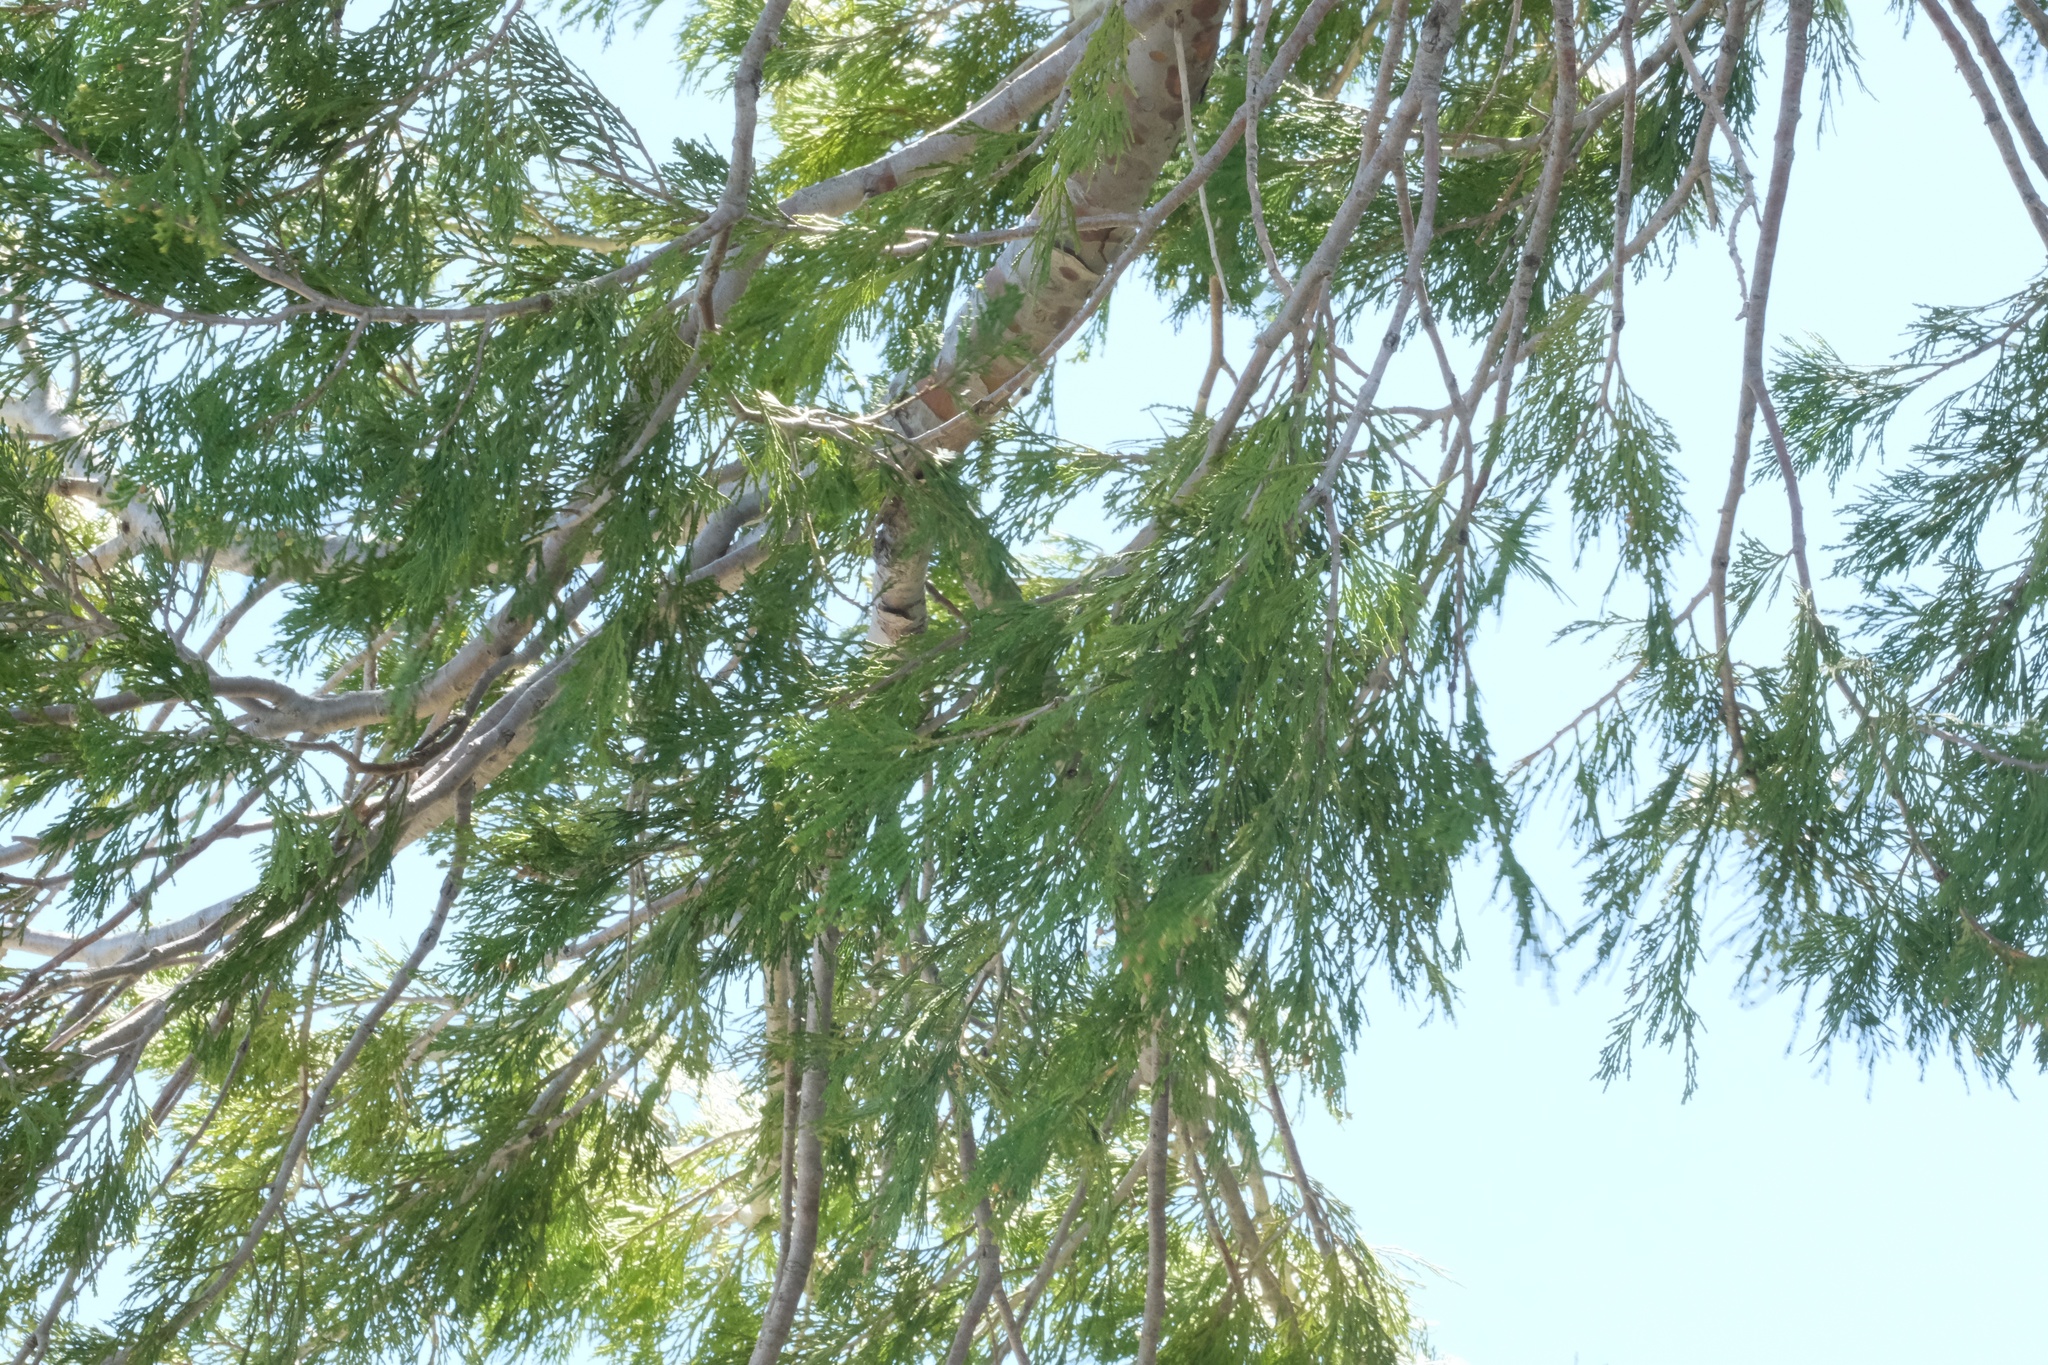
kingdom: Plantae
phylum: Tracheophyta
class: Pinopsida
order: Pinales
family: Cupressaceae
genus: Calocedrus
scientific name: Calocedrus decurrens
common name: Californian incense-cedar
